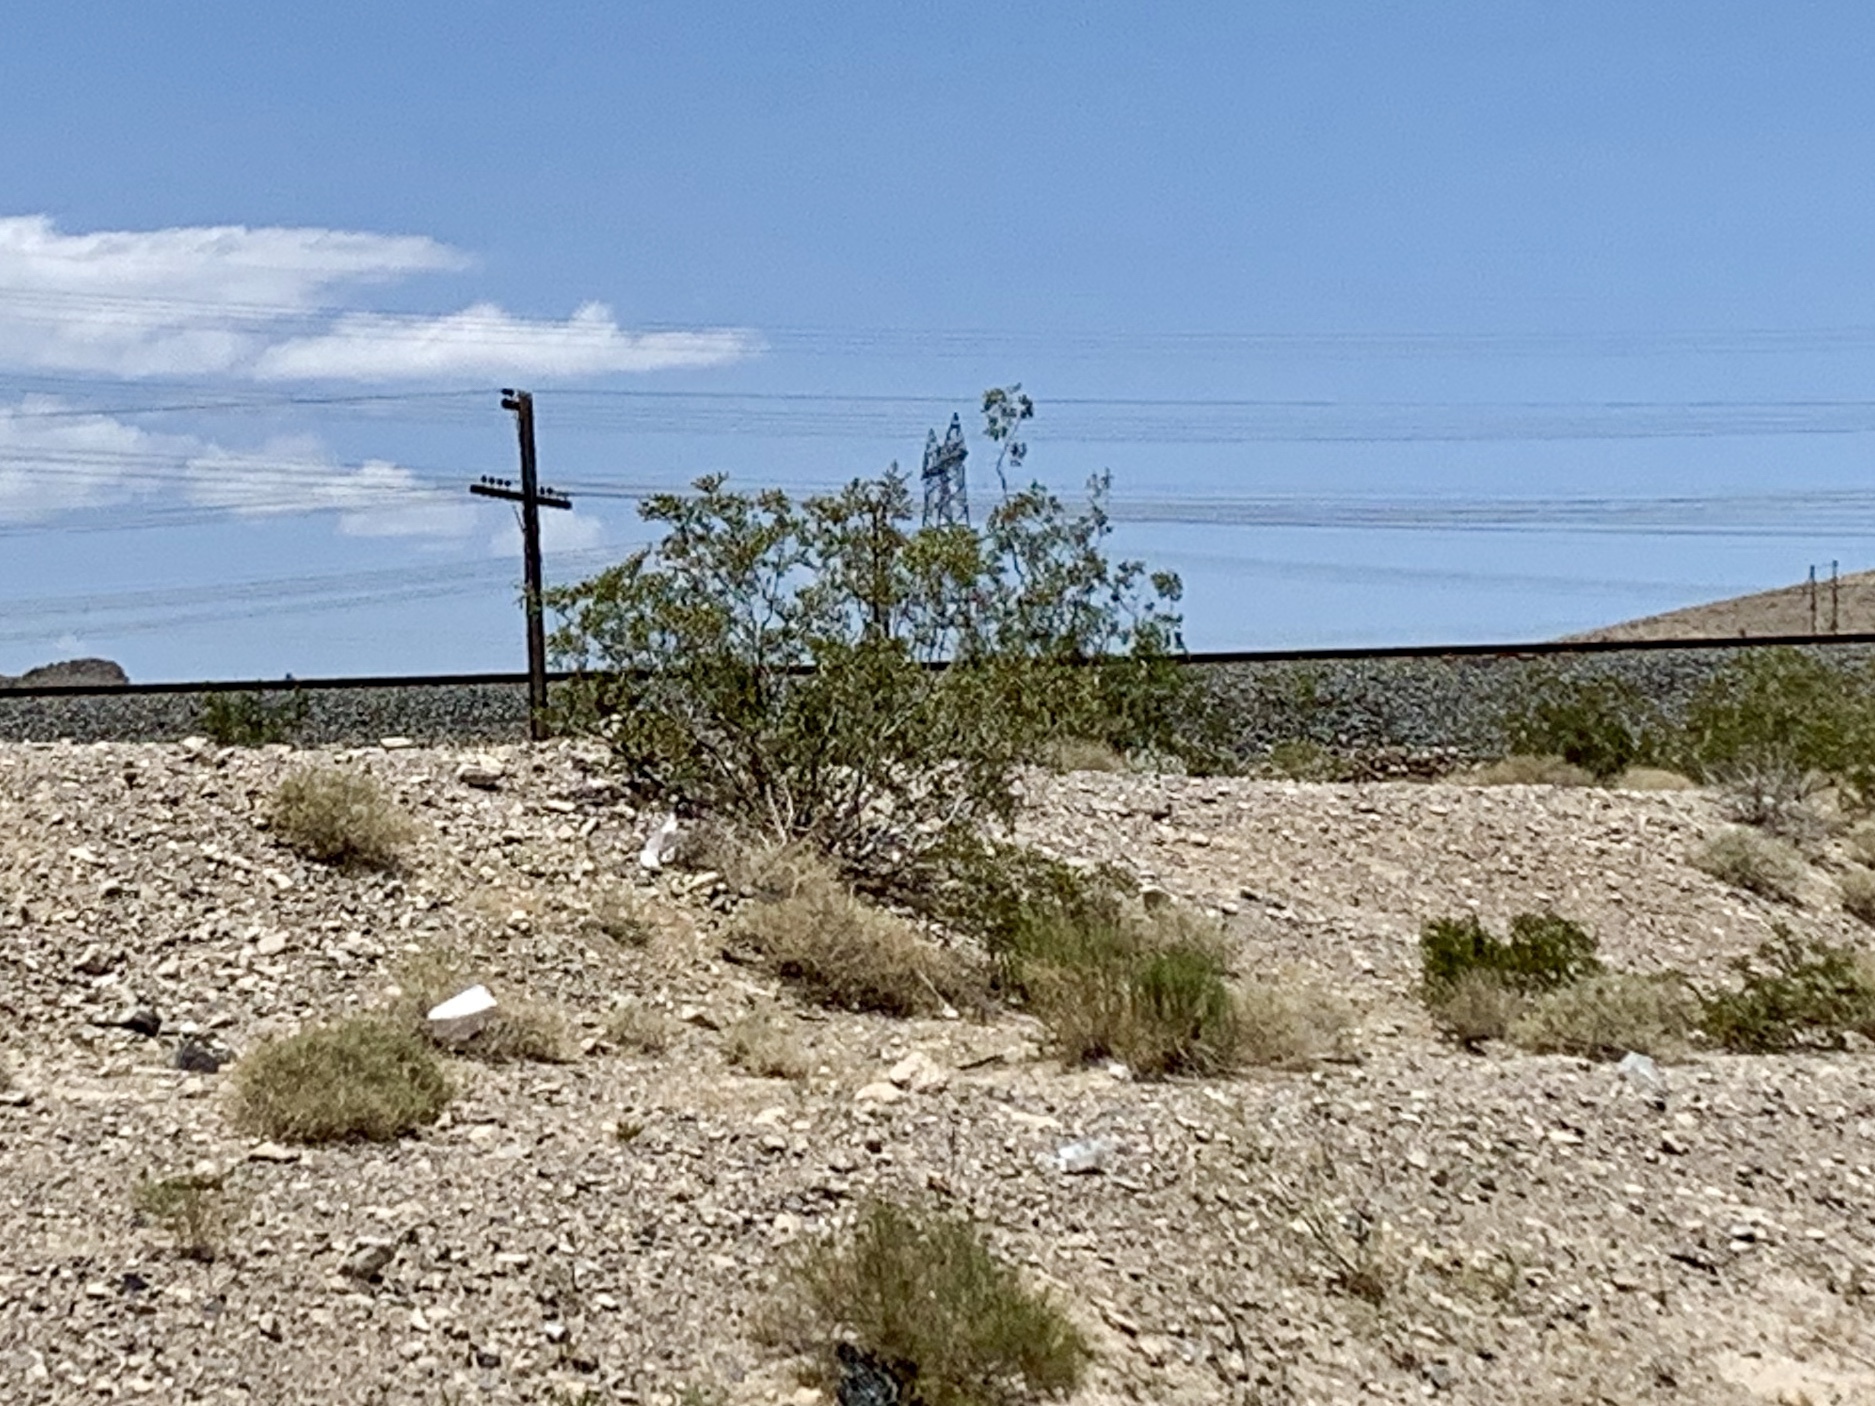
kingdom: Plantae
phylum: Tracheophyta
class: Magnoliopsida
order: Zygophyllales
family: Zygophyllaceae
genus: Larrea
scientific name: Larrea tridentata
